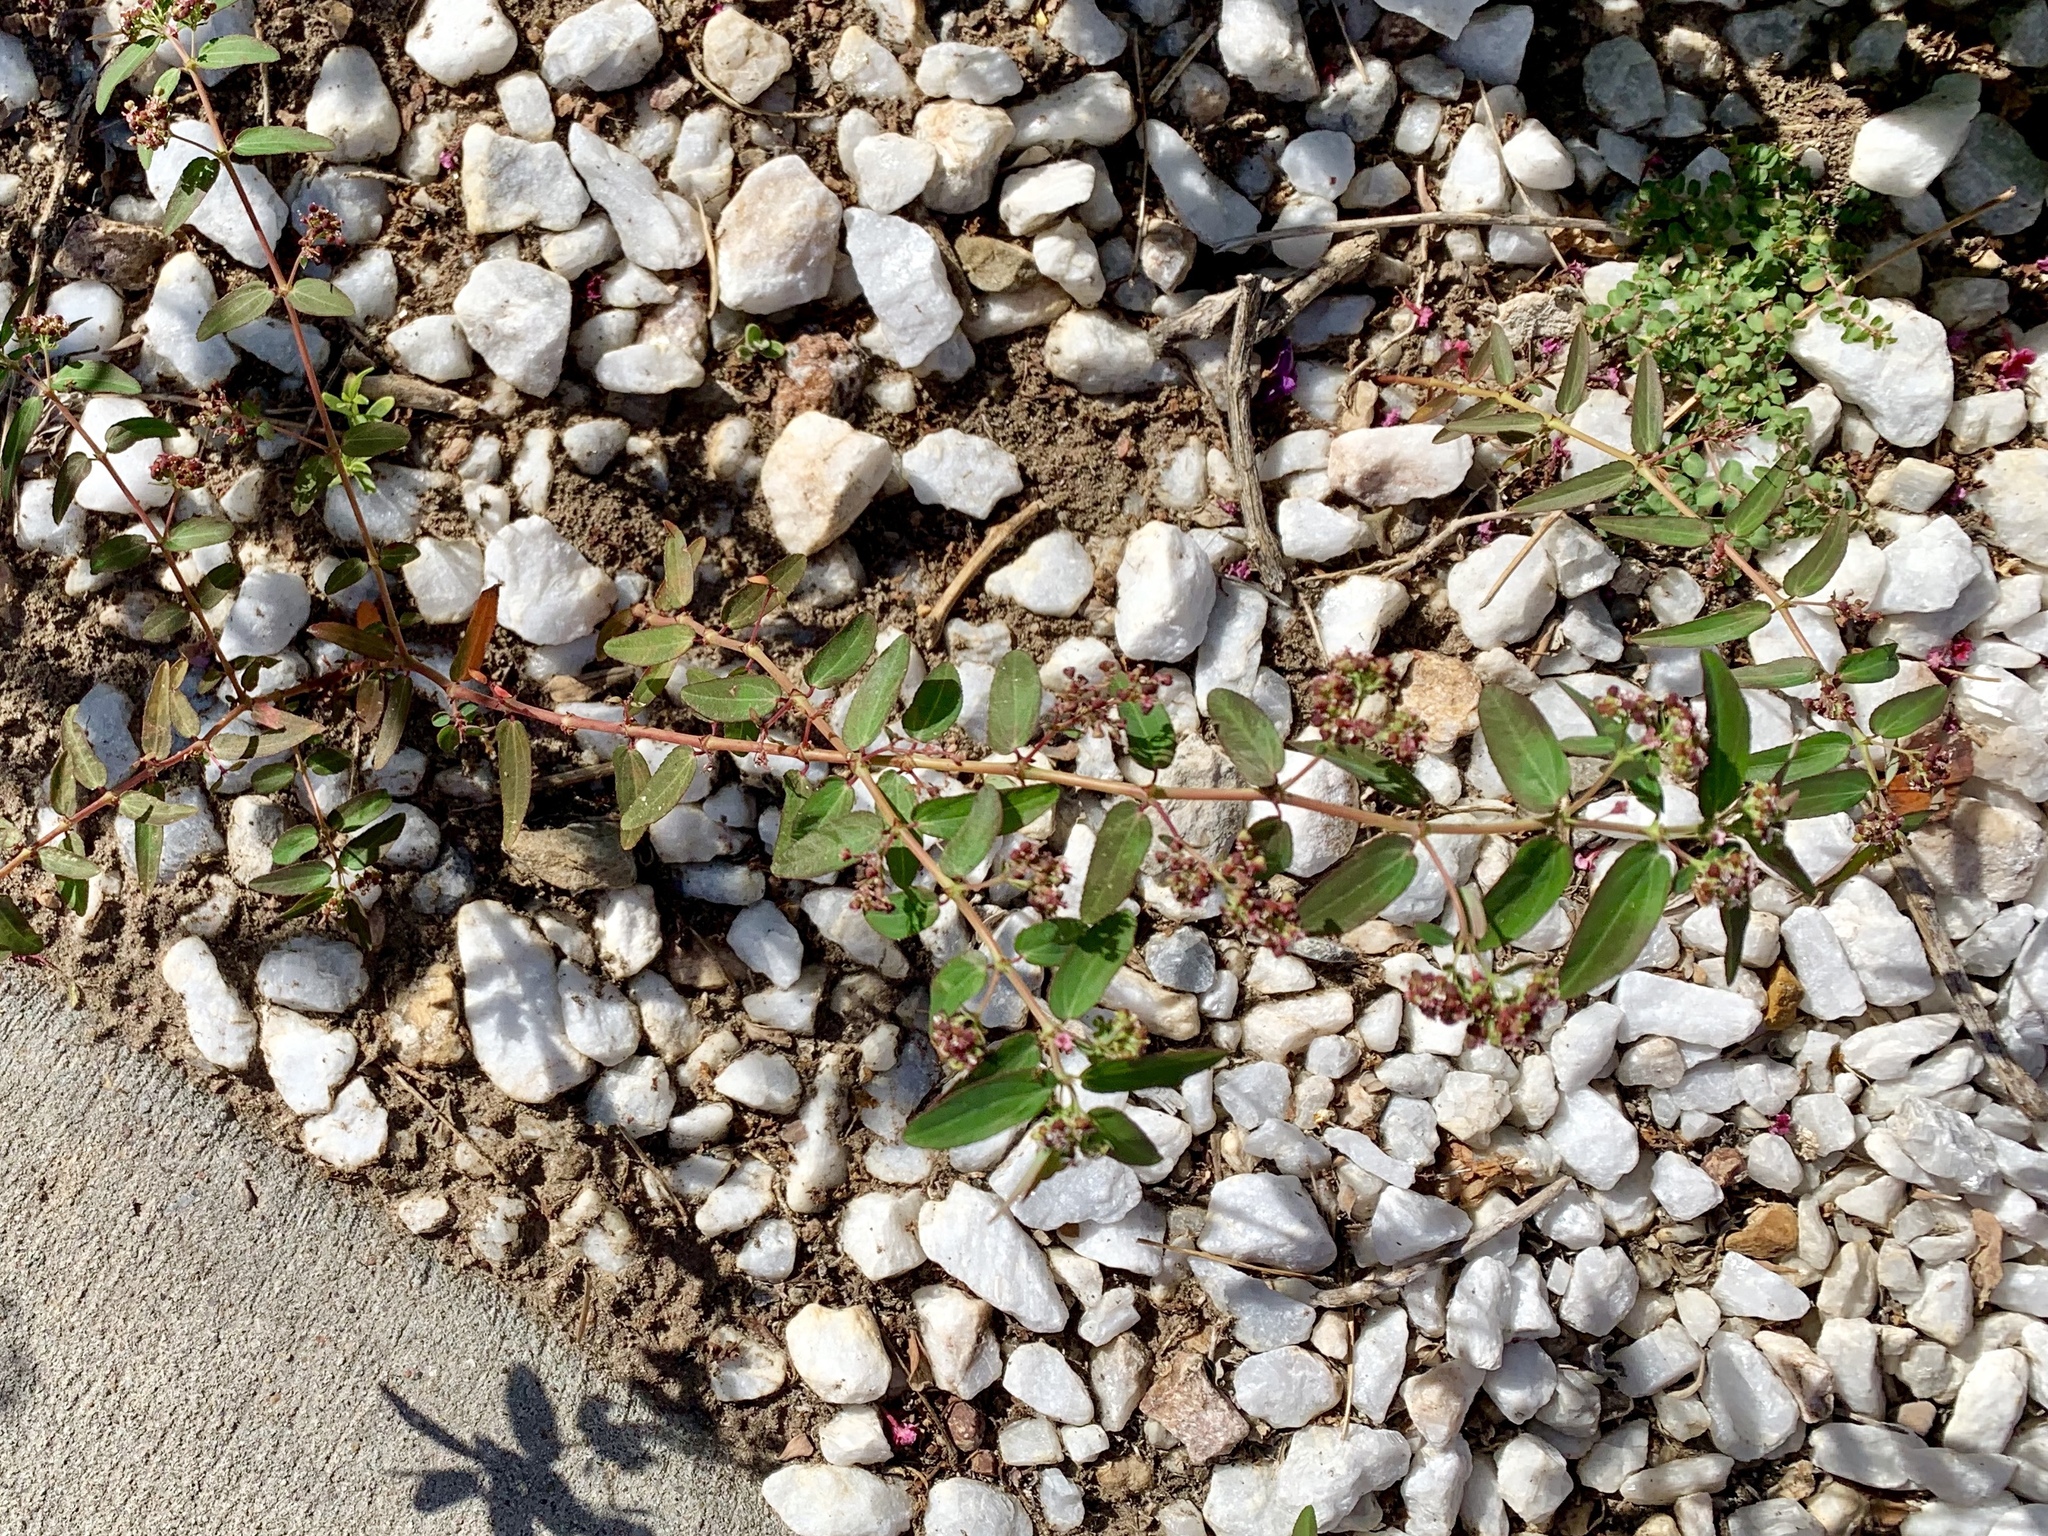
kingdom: Plantae
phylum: Tracheophyta
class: Magnoliopsida
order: Malpighiales
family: Euphorbiaceae
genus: Euphorbia
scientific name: Euphorbia hypericifolia
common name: Graceful sandmat
